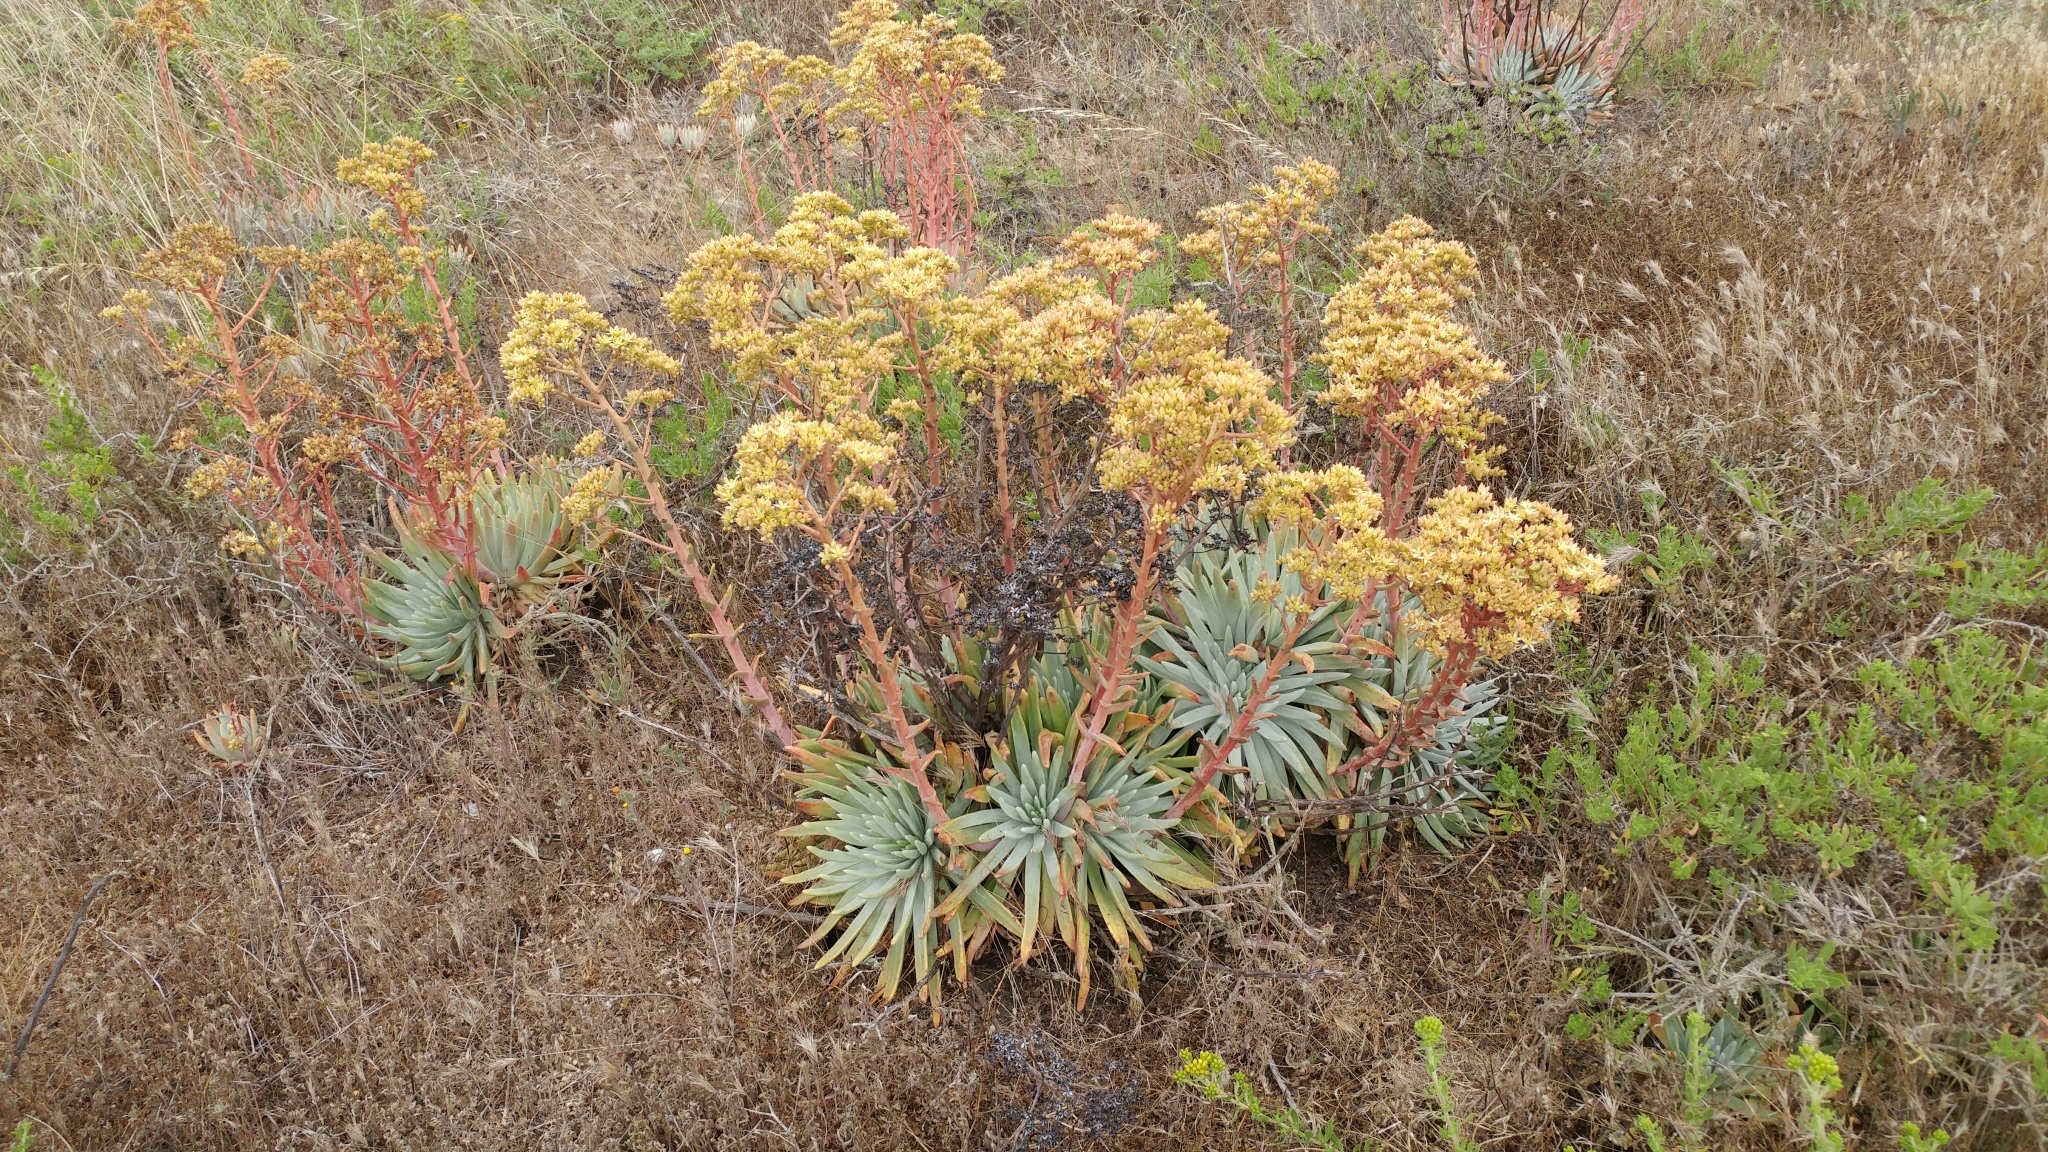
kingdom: Plantae
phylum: Tracheophyta
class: Magnoliopsida
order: Saxifragales
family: Crassulaceae
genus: Dudleya
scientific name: Dudleya virens
